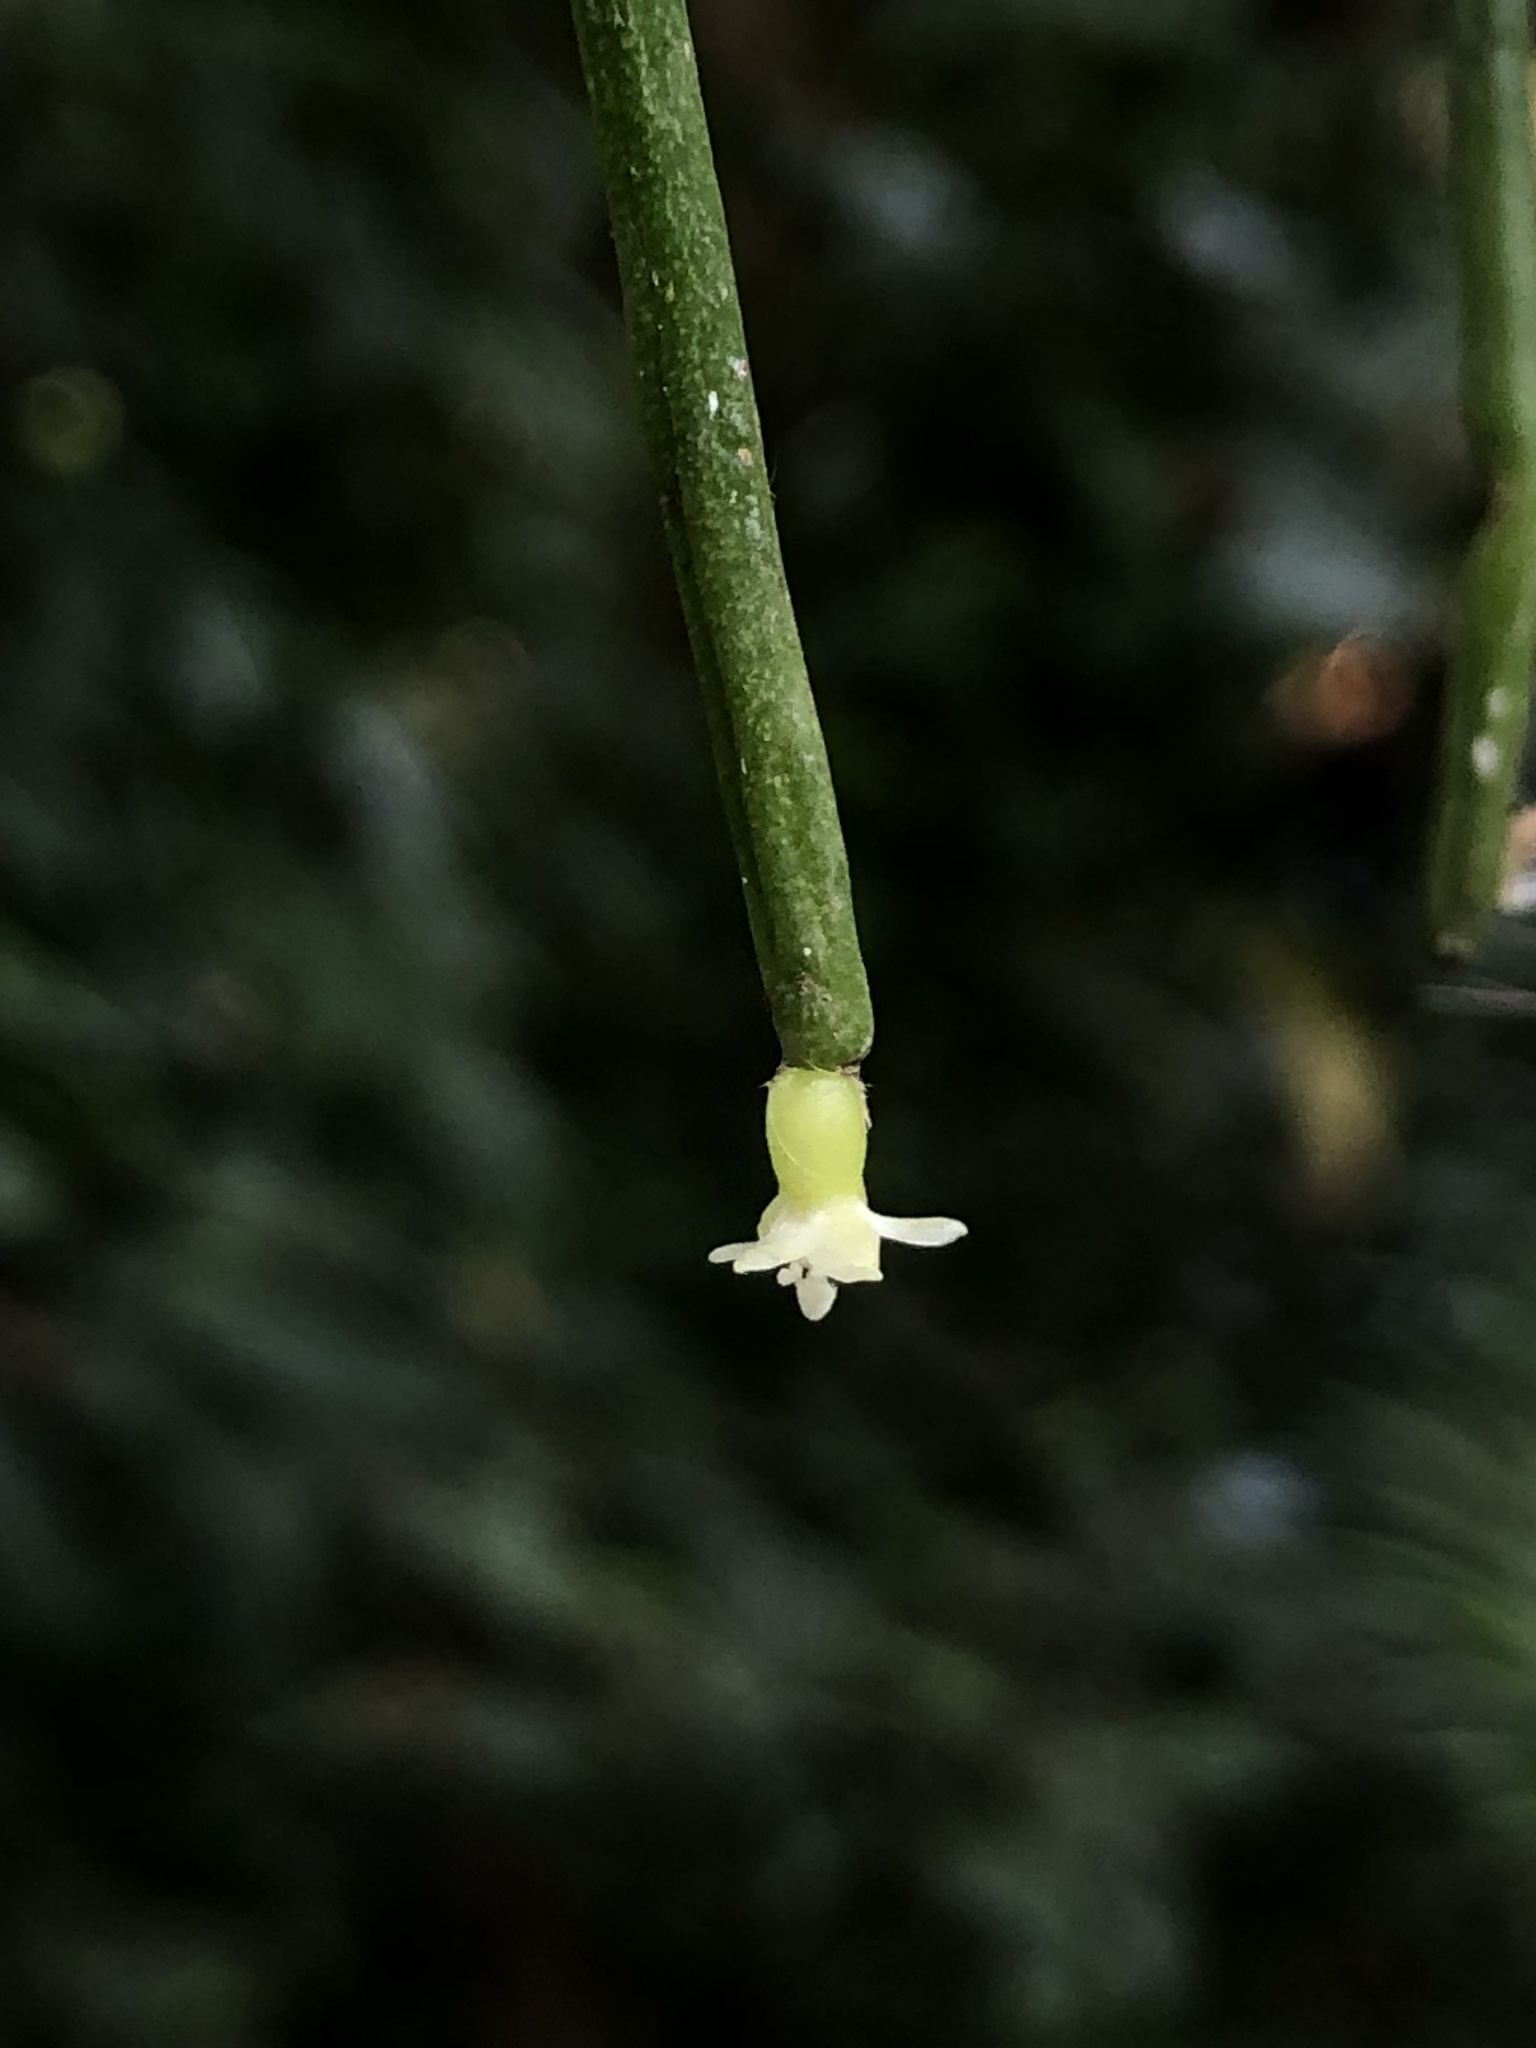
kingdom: Plantae
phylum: Tracheophyta
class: Magnoliopsida
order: Caryophyllales
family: Cactaceae
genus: Rhipsalis
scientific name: Rhipsalis baccifera
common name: Mistletoe cactus
